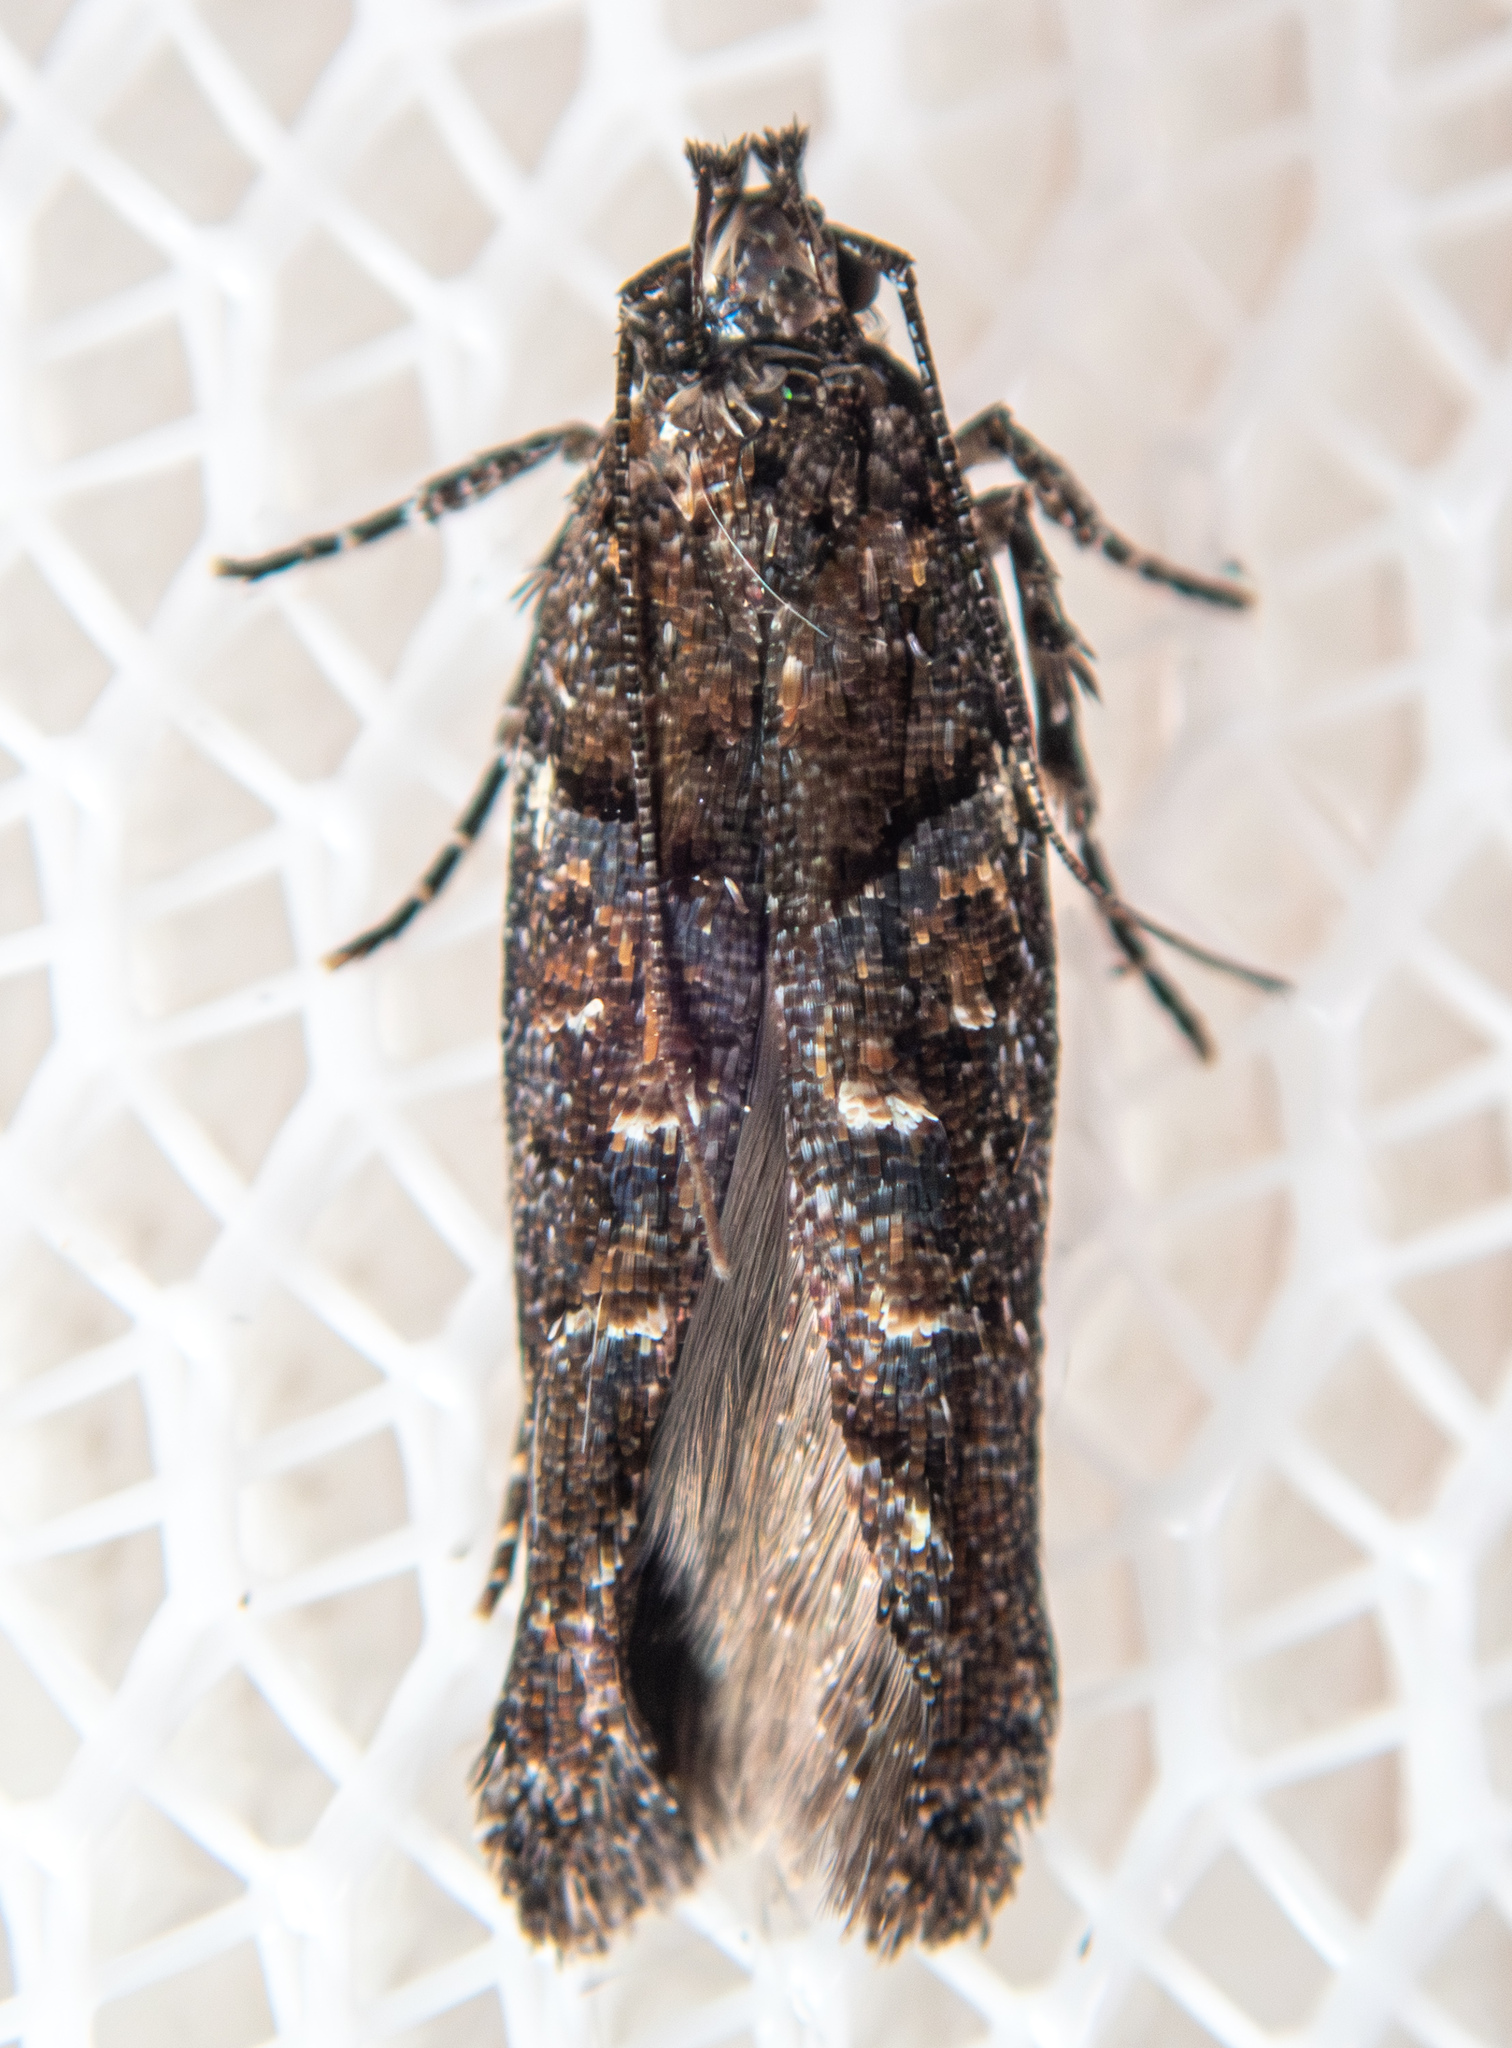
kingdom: Animalia
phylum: Arthropoda
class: Insecta
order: Lepidoptera
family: Gelechiidae
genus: Telphusa
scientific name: Telphusa sedulitella
